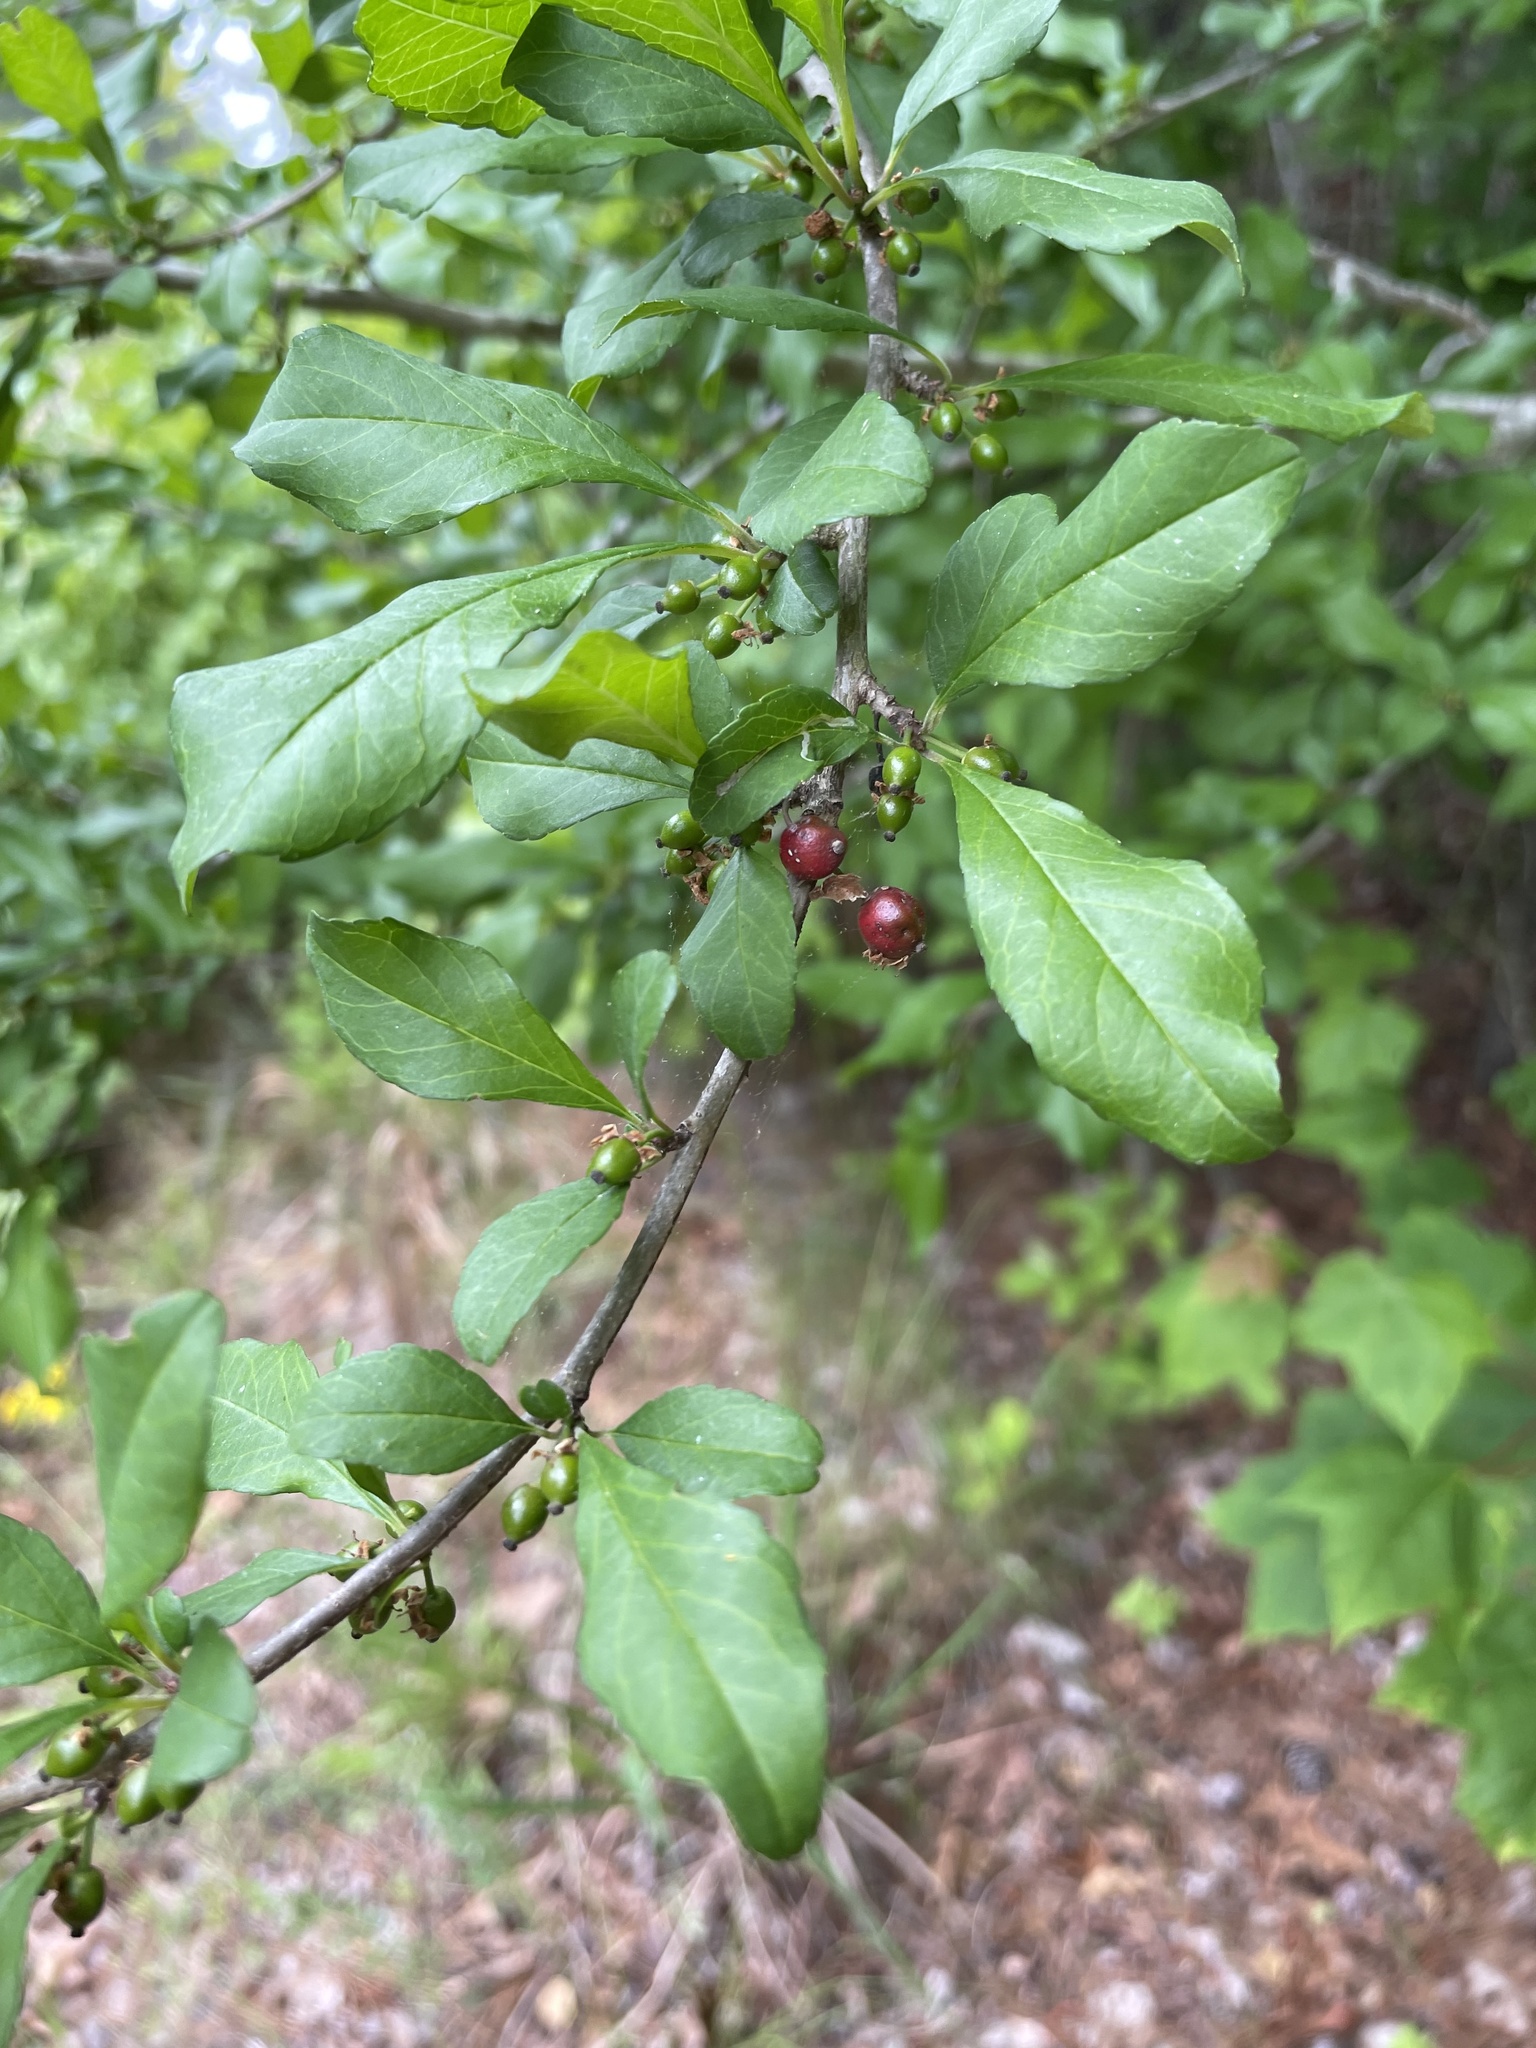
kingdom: Plantae
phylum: Tracheophyta
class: Magnoliopsida
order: Aquifoliales
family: Aquifoliaceae
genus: Ilex
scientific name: Ilex decidua
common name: Possum-haw
